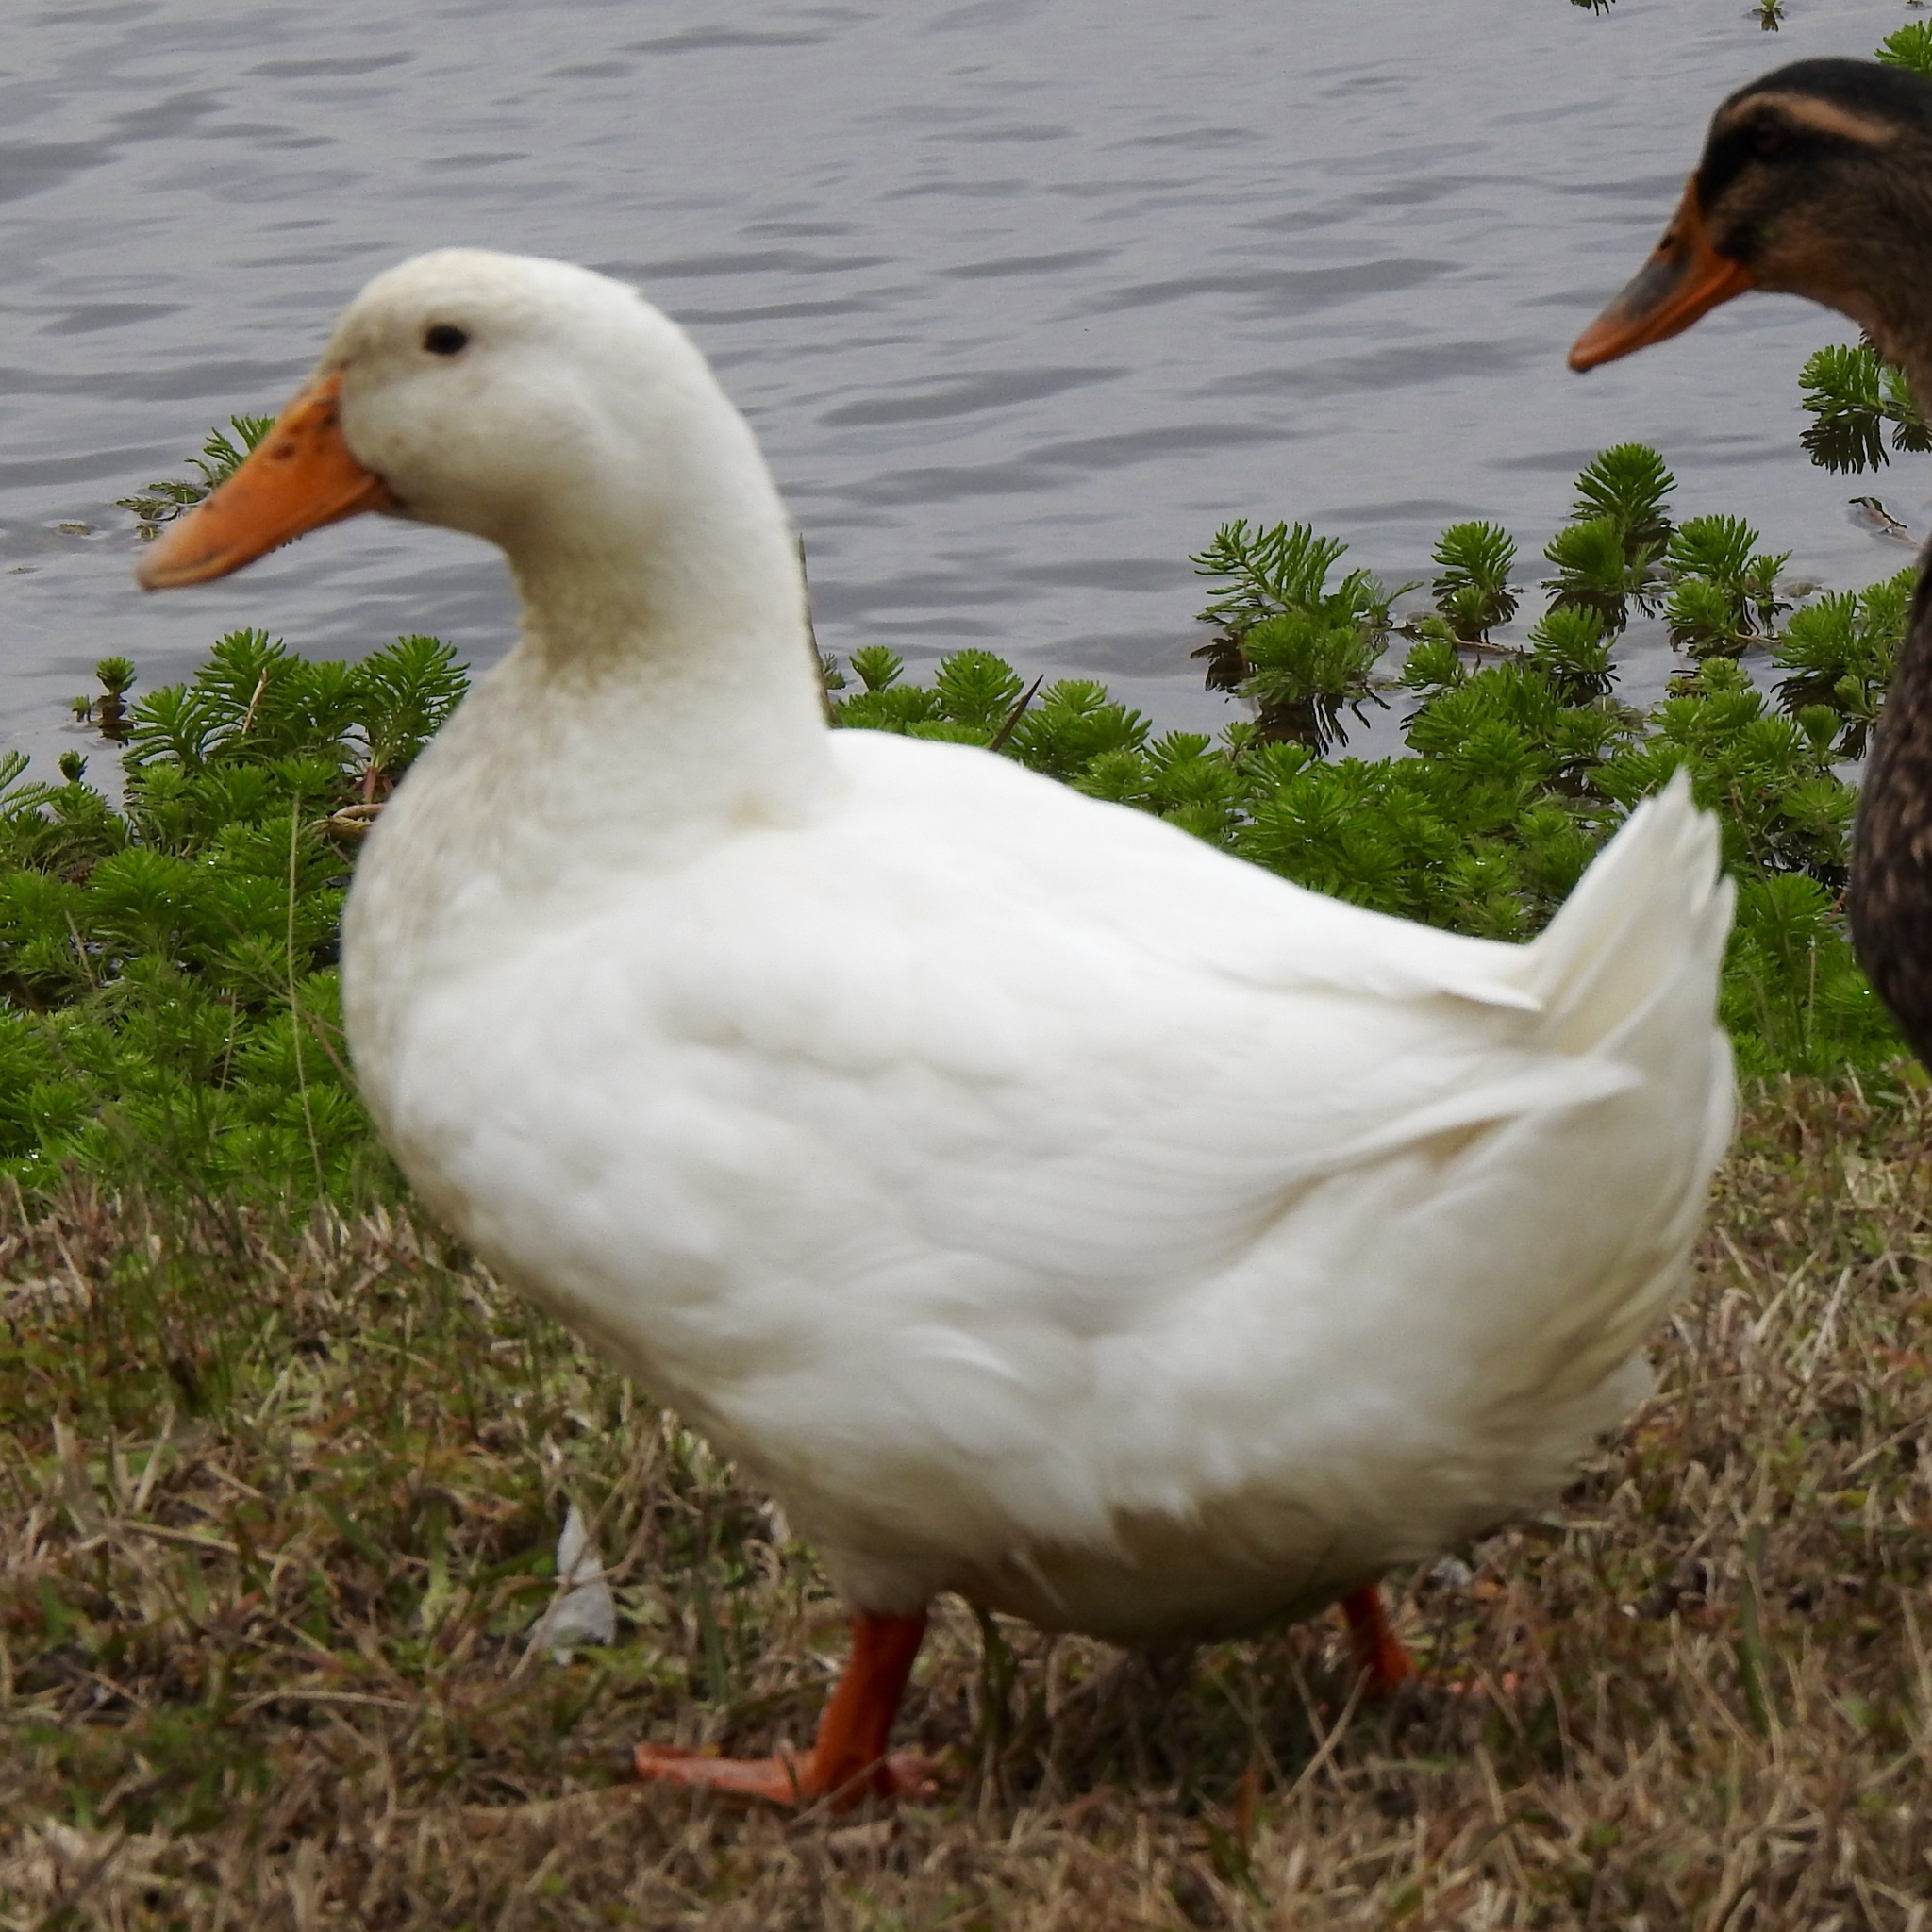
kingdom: Animalia
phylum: Chordata
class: Aves
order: Anseriformes
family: Anatidae
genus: Anas
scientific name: Anas platyrhynchos
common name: Mallard
